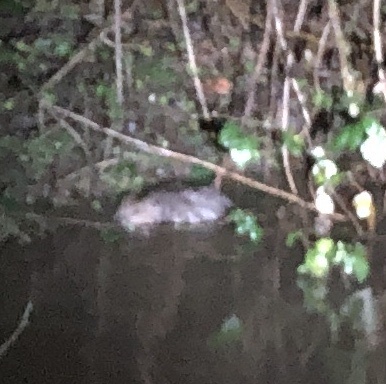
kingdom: Animalia
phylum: Chordata
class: Mammalia
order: Rodentia
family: Castoridae
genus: Castor
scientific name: Castor fiber
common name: Eurasian beaver
